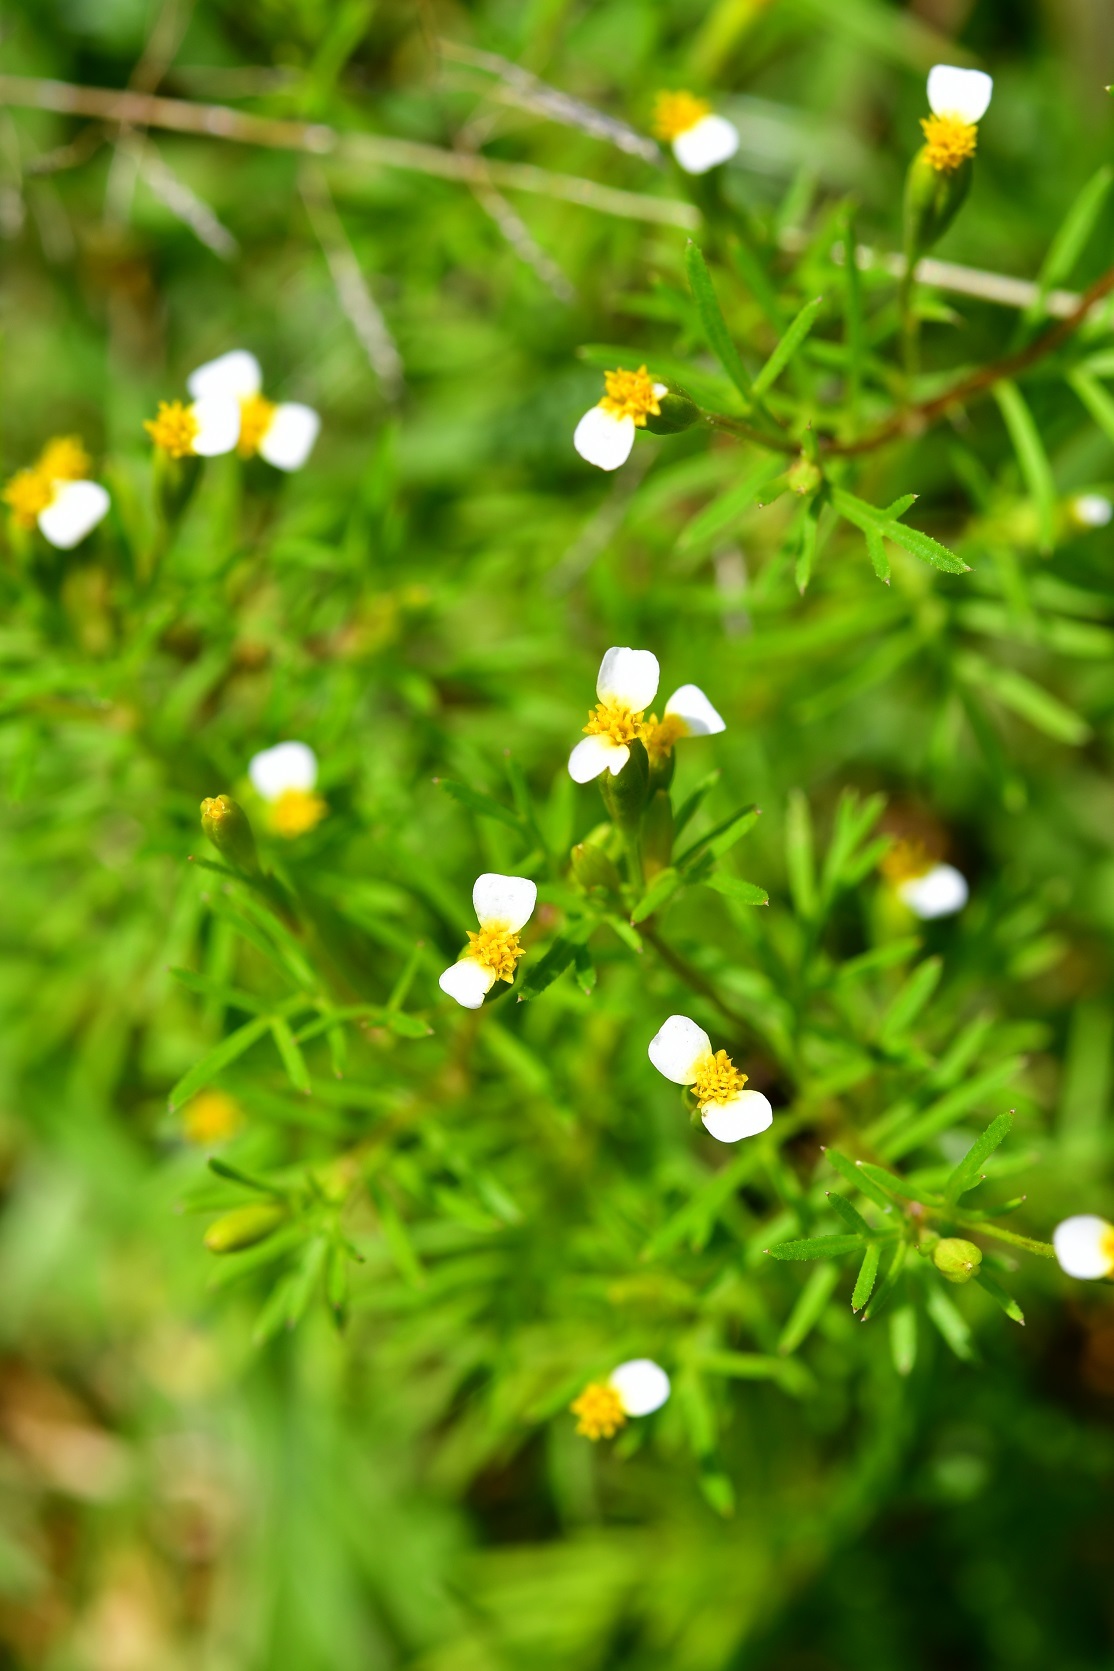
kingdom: Plantae
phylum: Tracheophyta
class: Magnoliopsida
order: Asterales
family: Asteraceae
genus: Tagetes
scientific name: Tagetes filifolia
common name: Lesser marigold
